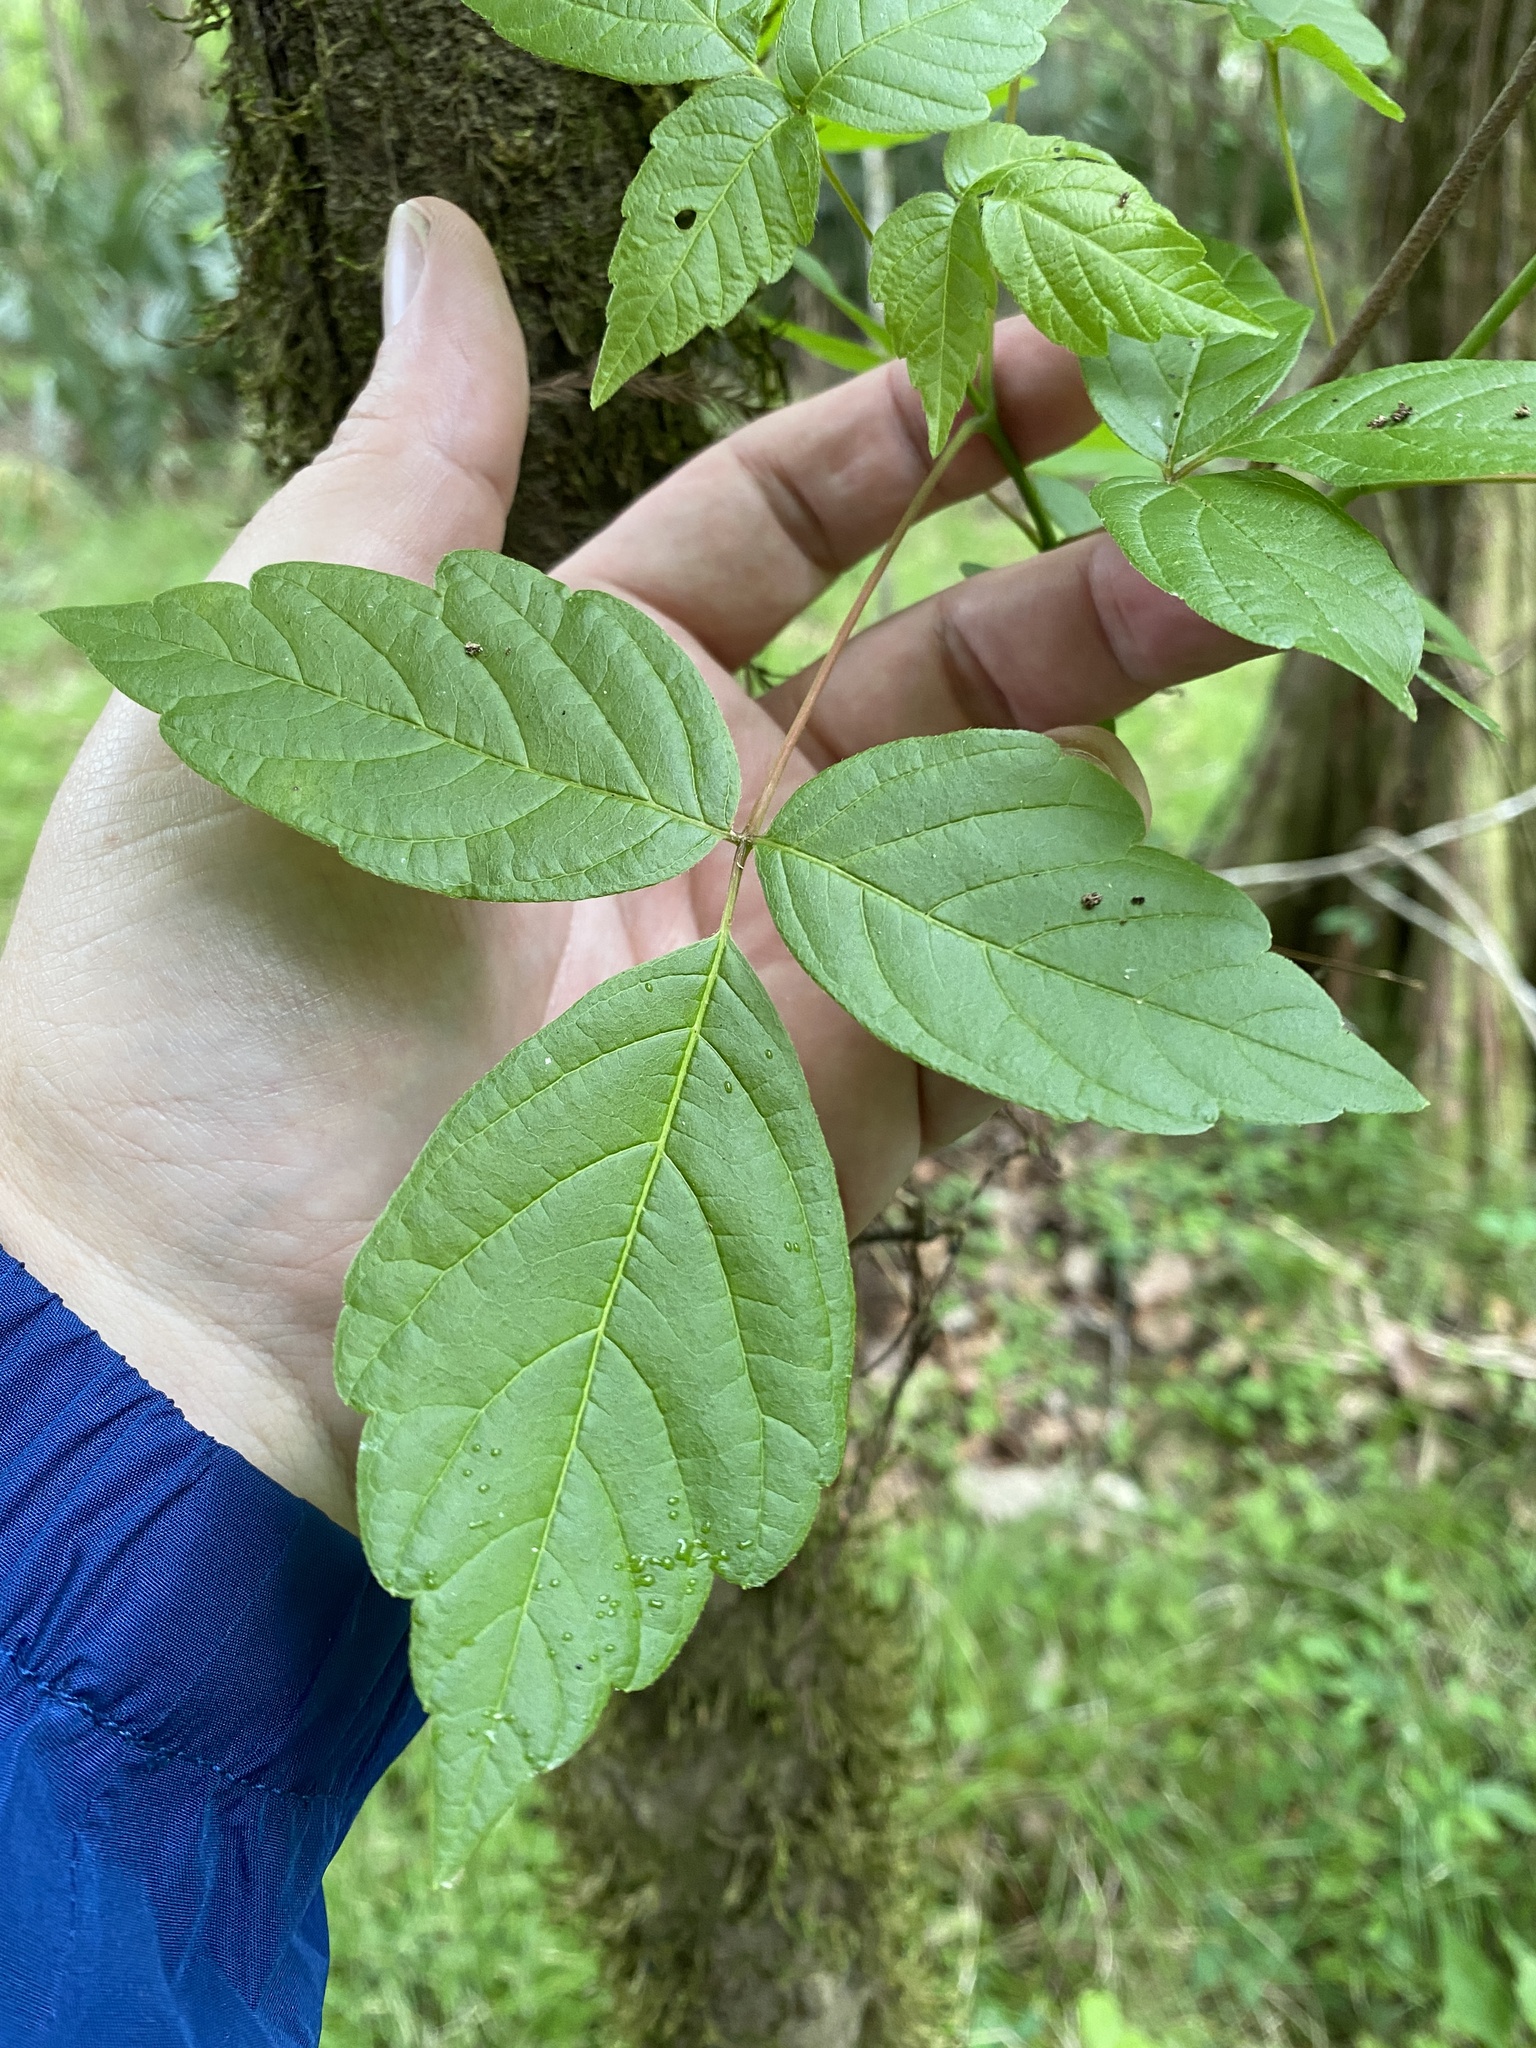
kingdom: Plantae
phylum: Tracheophyta
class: Magnoliopsida
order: Sapindales
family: Sapindaceae
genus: Acer
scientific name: Acer negundo
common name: Ashleaf maple
